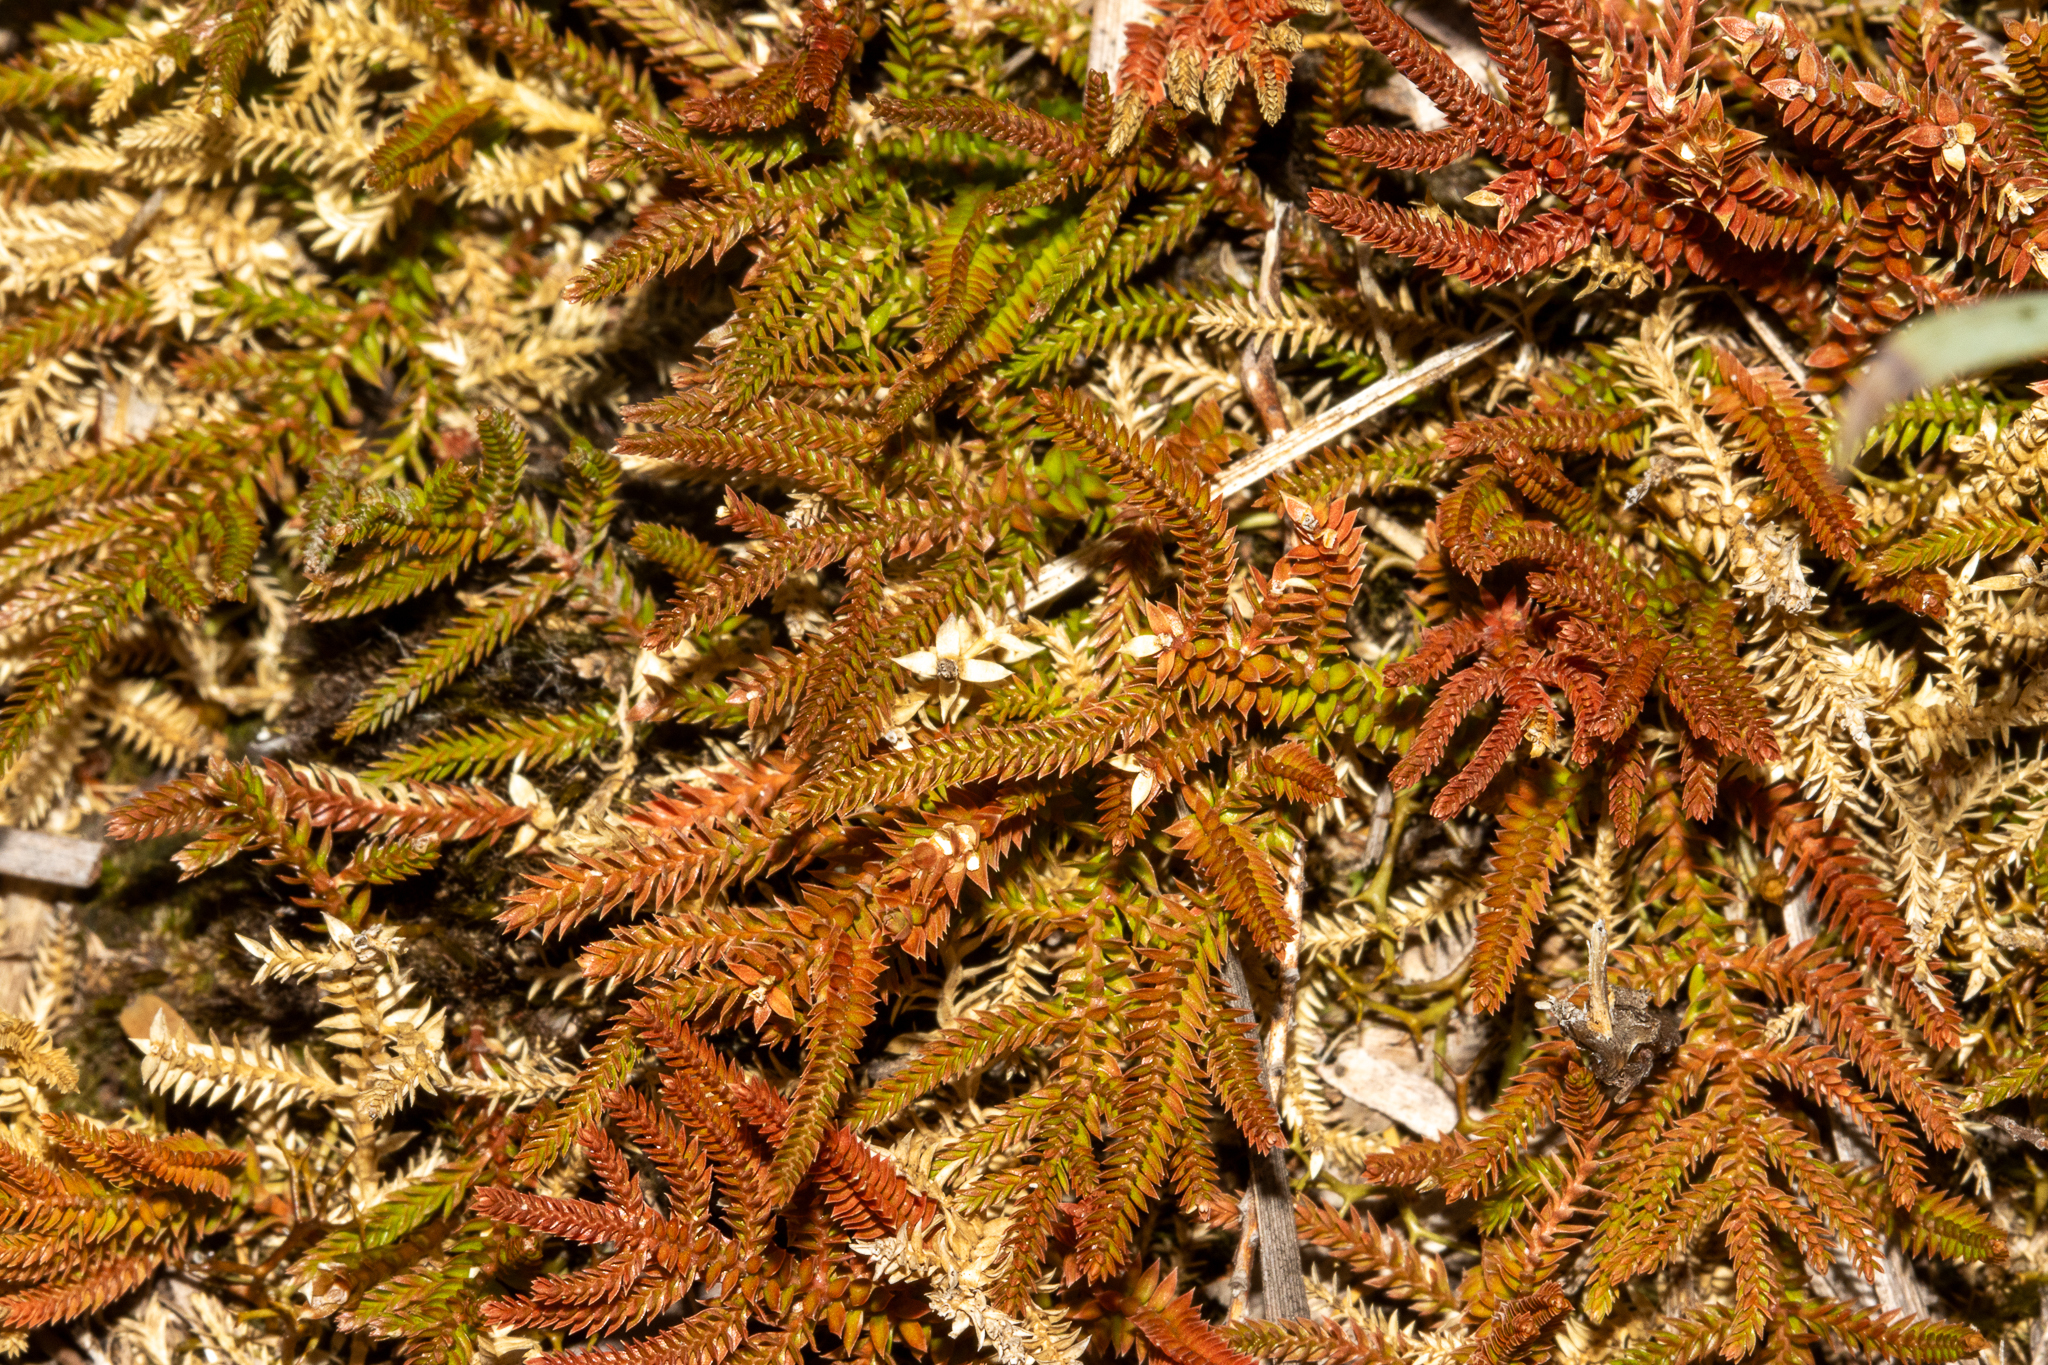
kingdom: Plantae
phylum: Tracheophyta
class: Lycopodiopsida
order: Selaginellales
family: Selaginellaceae
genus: Selaginella
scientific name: Selaginella uliginosa
